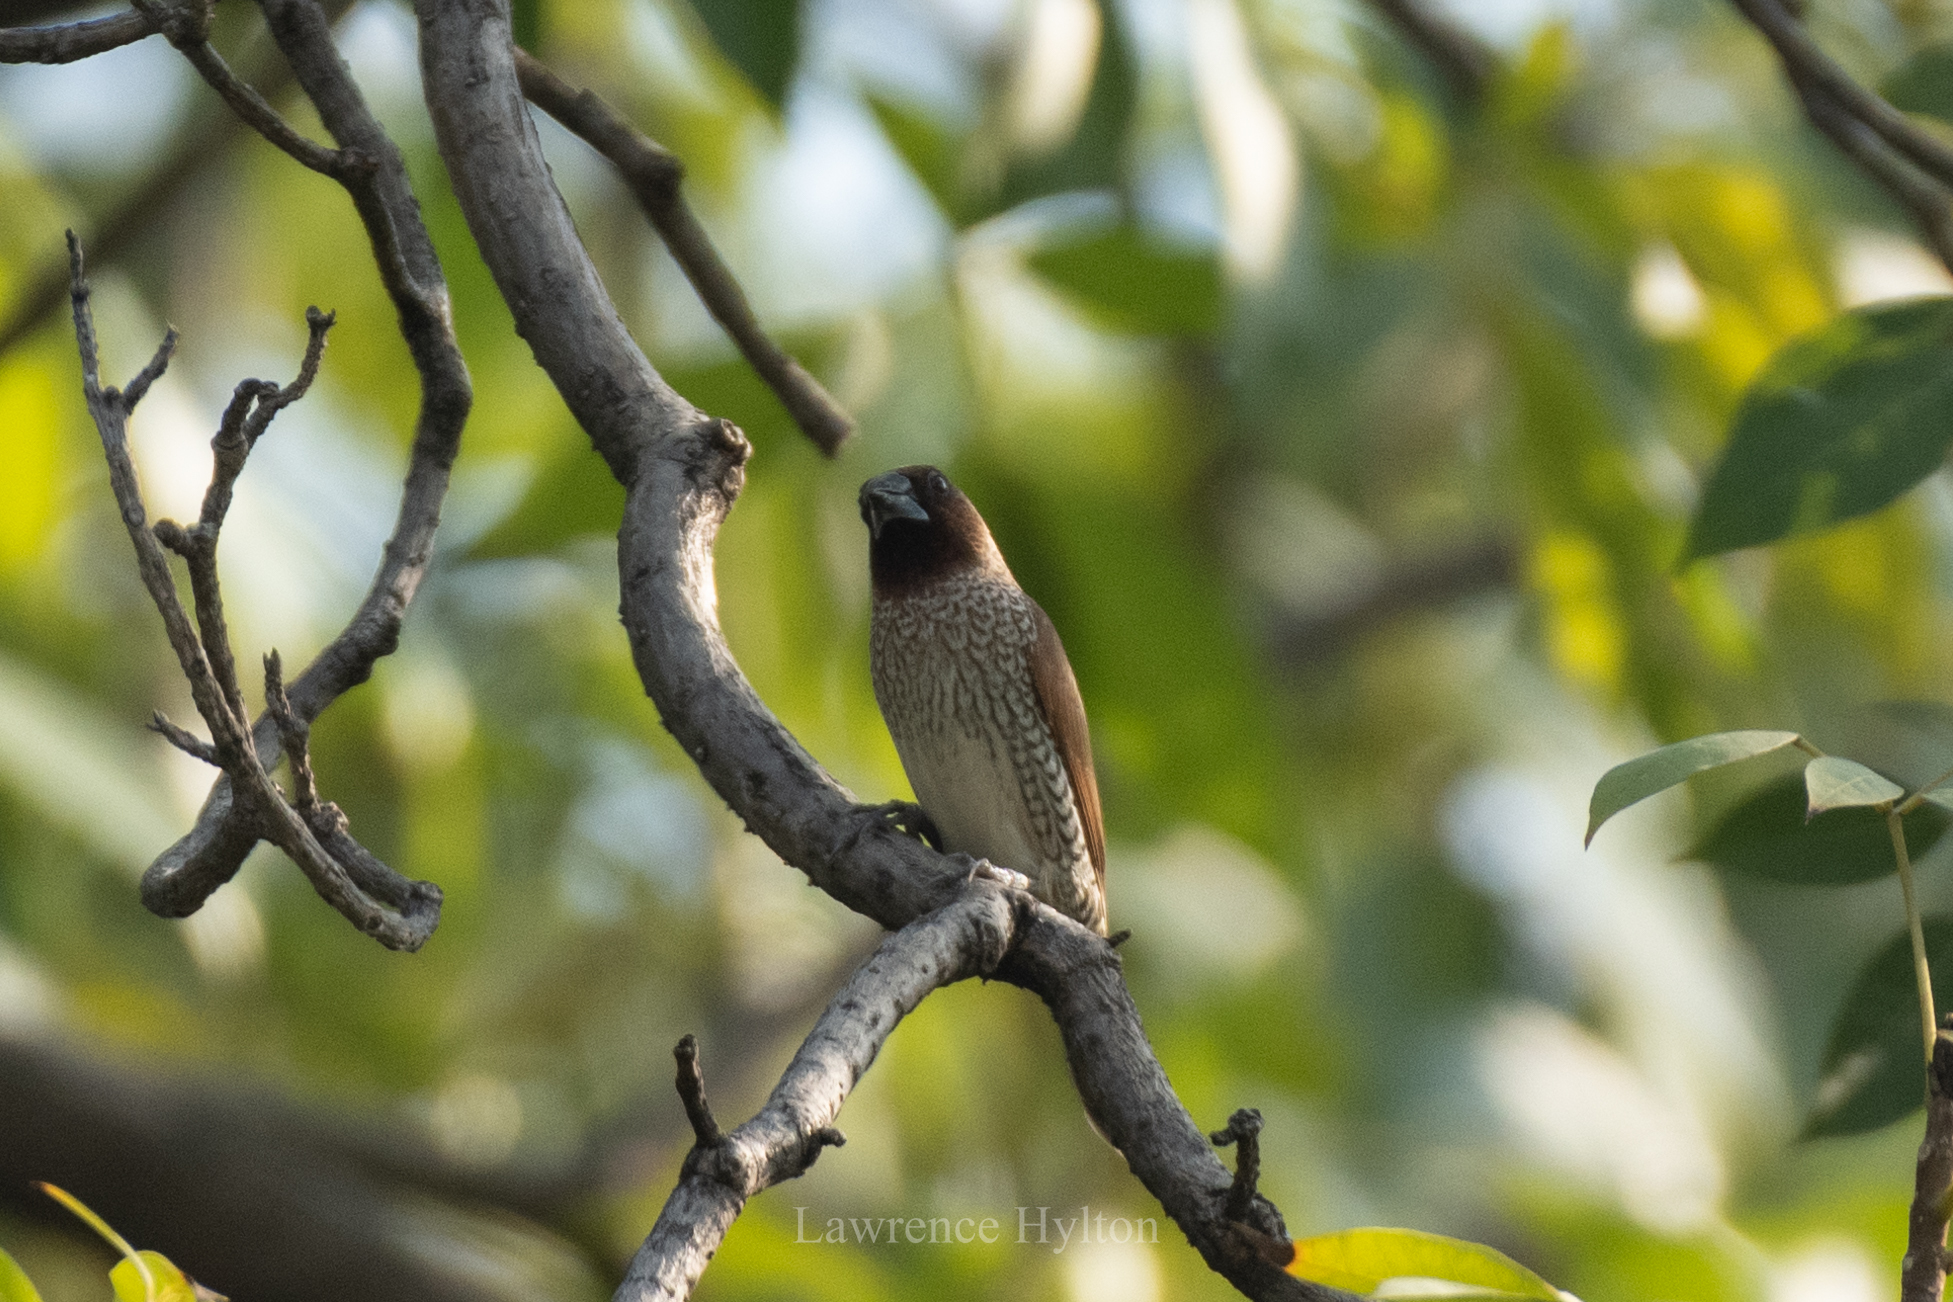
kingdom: Animalia
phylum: Chordata
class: Aves
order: Passeriformes
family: Estrildidae
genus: Lonchura
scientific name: Lonchura punctulata
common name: Scaly-breasted munia
